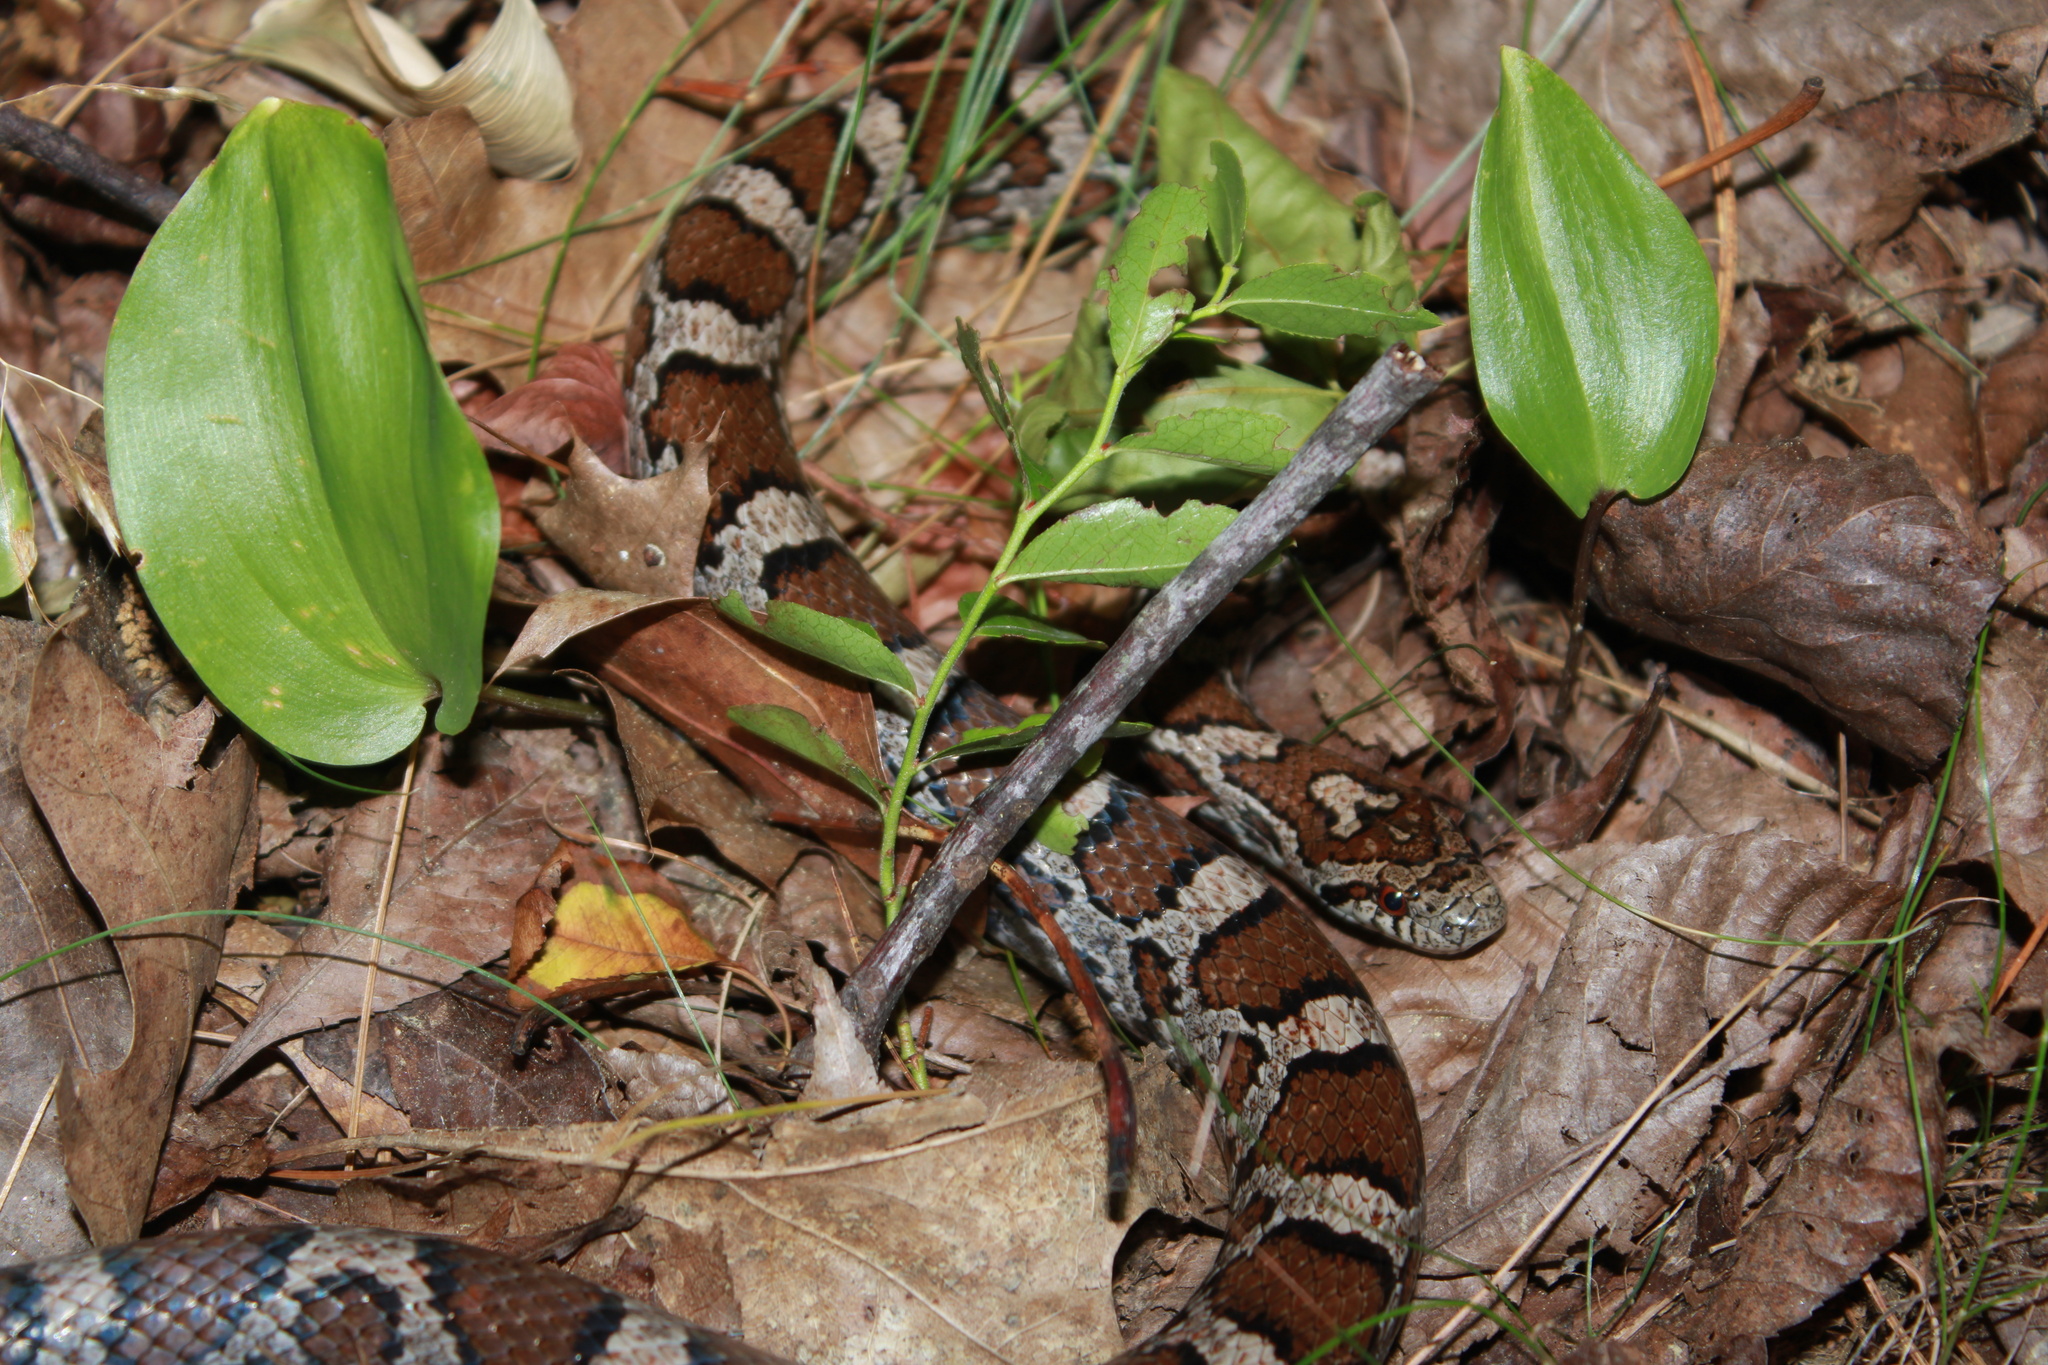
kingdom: Animalia
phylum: Chordata
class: Squamata
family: Colubridae
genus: Lampropeltis
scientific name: Lampropeltis triangulum
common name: Eastern milksnake
